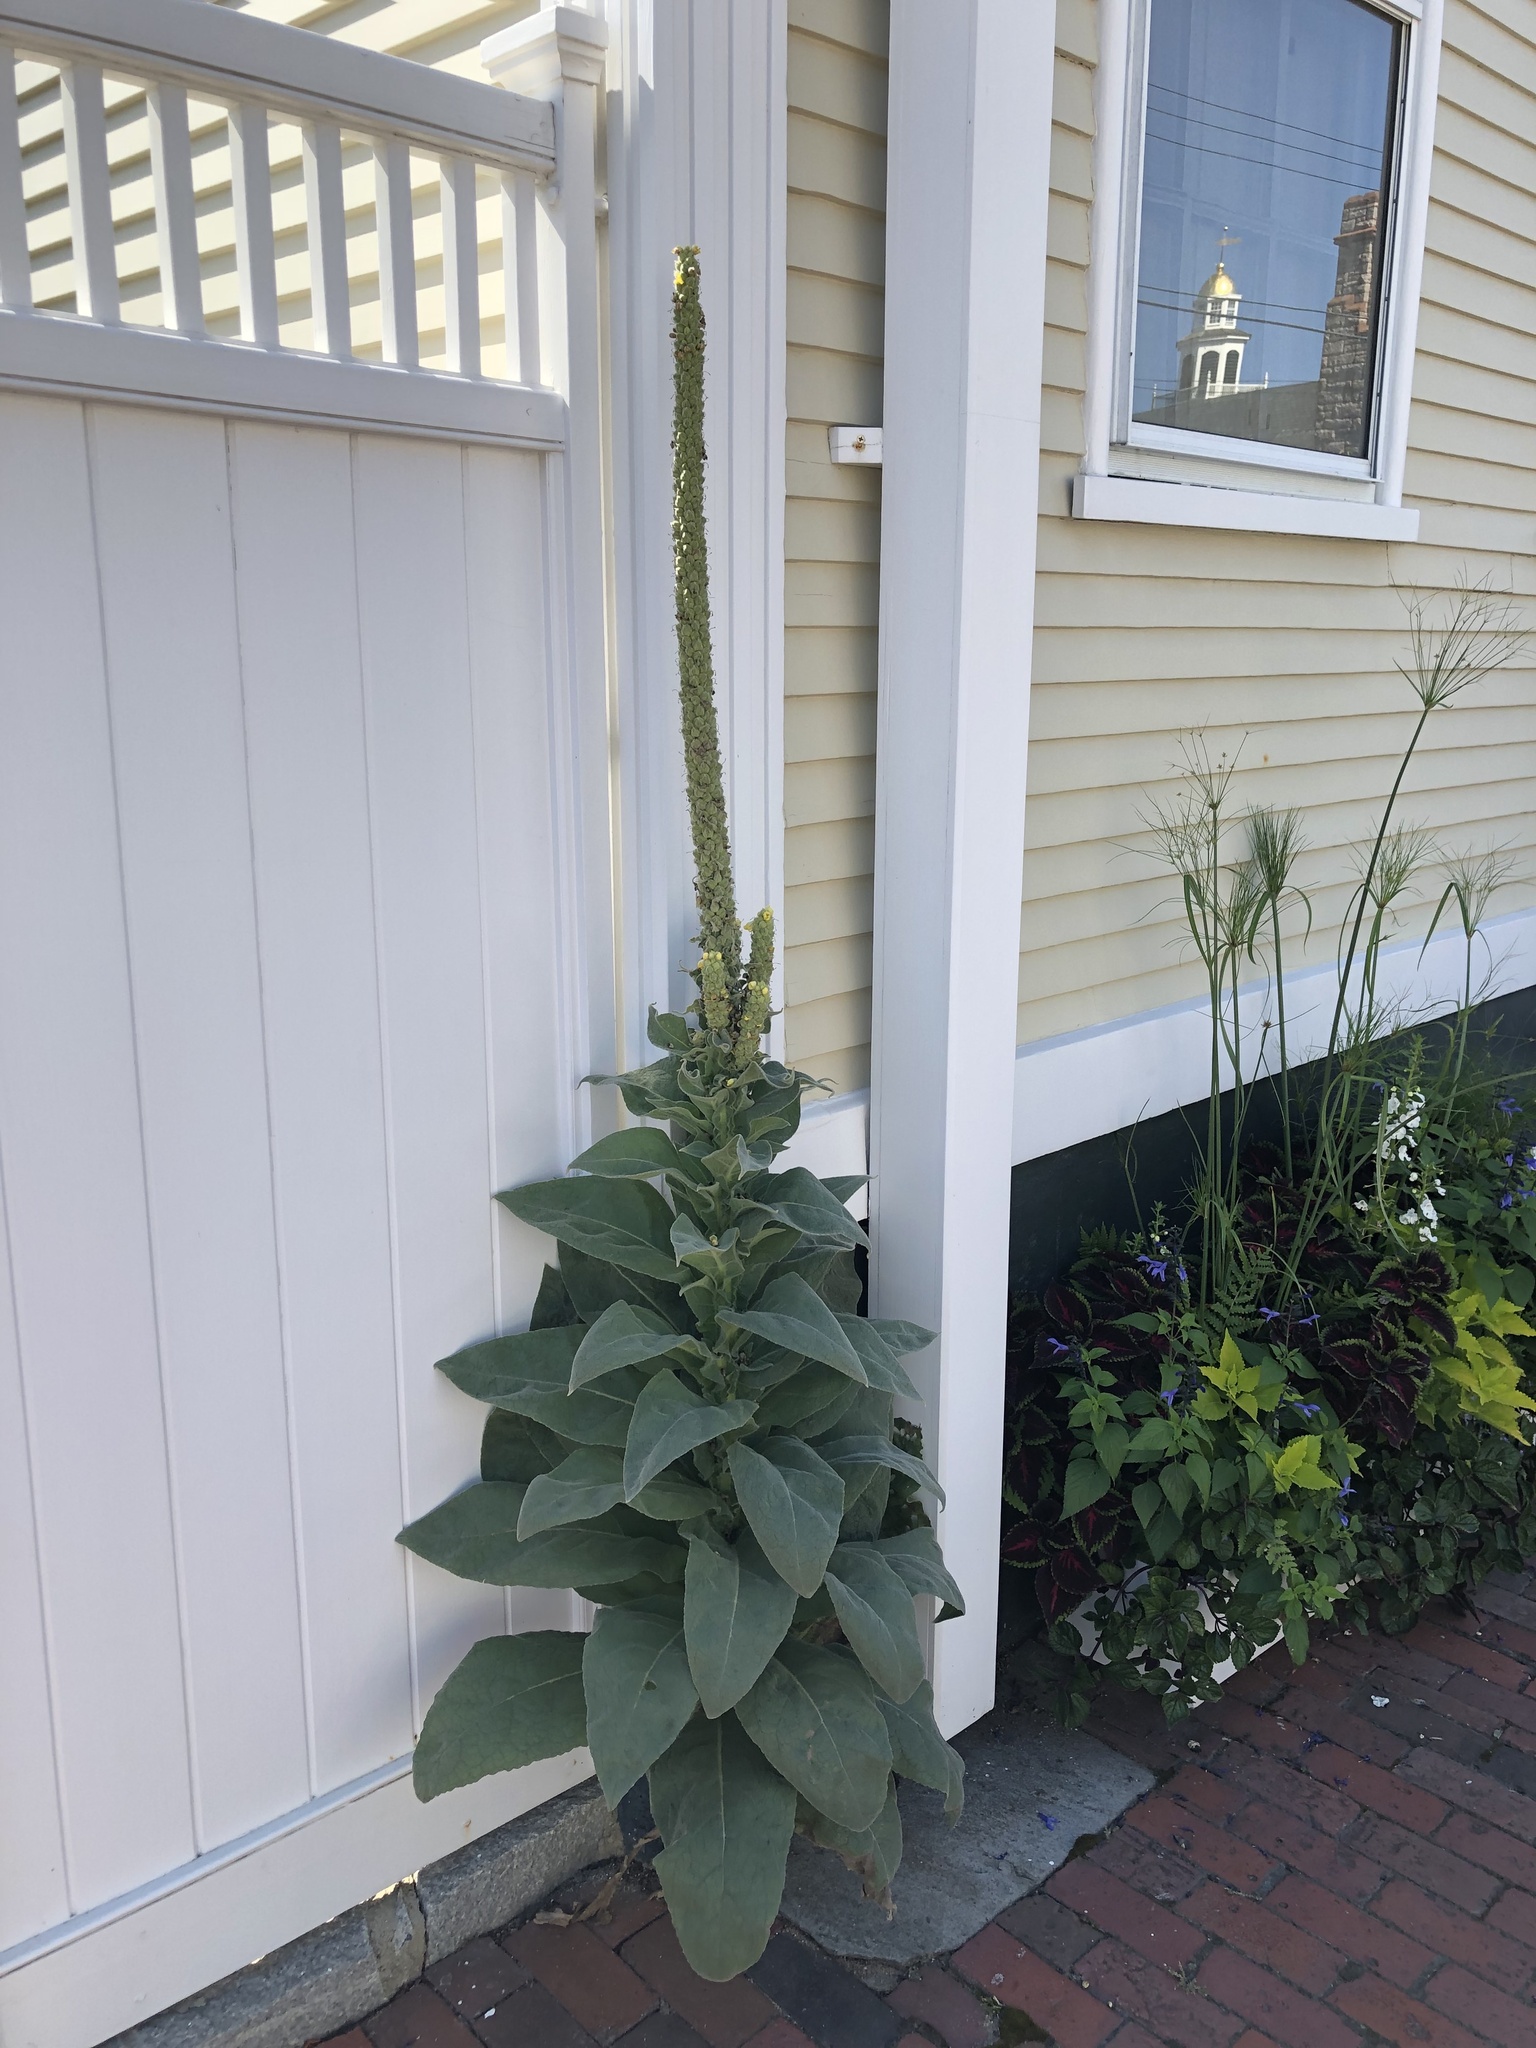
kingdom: Plantae
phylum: Tracheophyta
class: Magnoliopsida
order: Lamiales
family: Scrophulariaceae
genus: Verbascum
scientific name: Verbascum thapsus
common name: Common mullein
